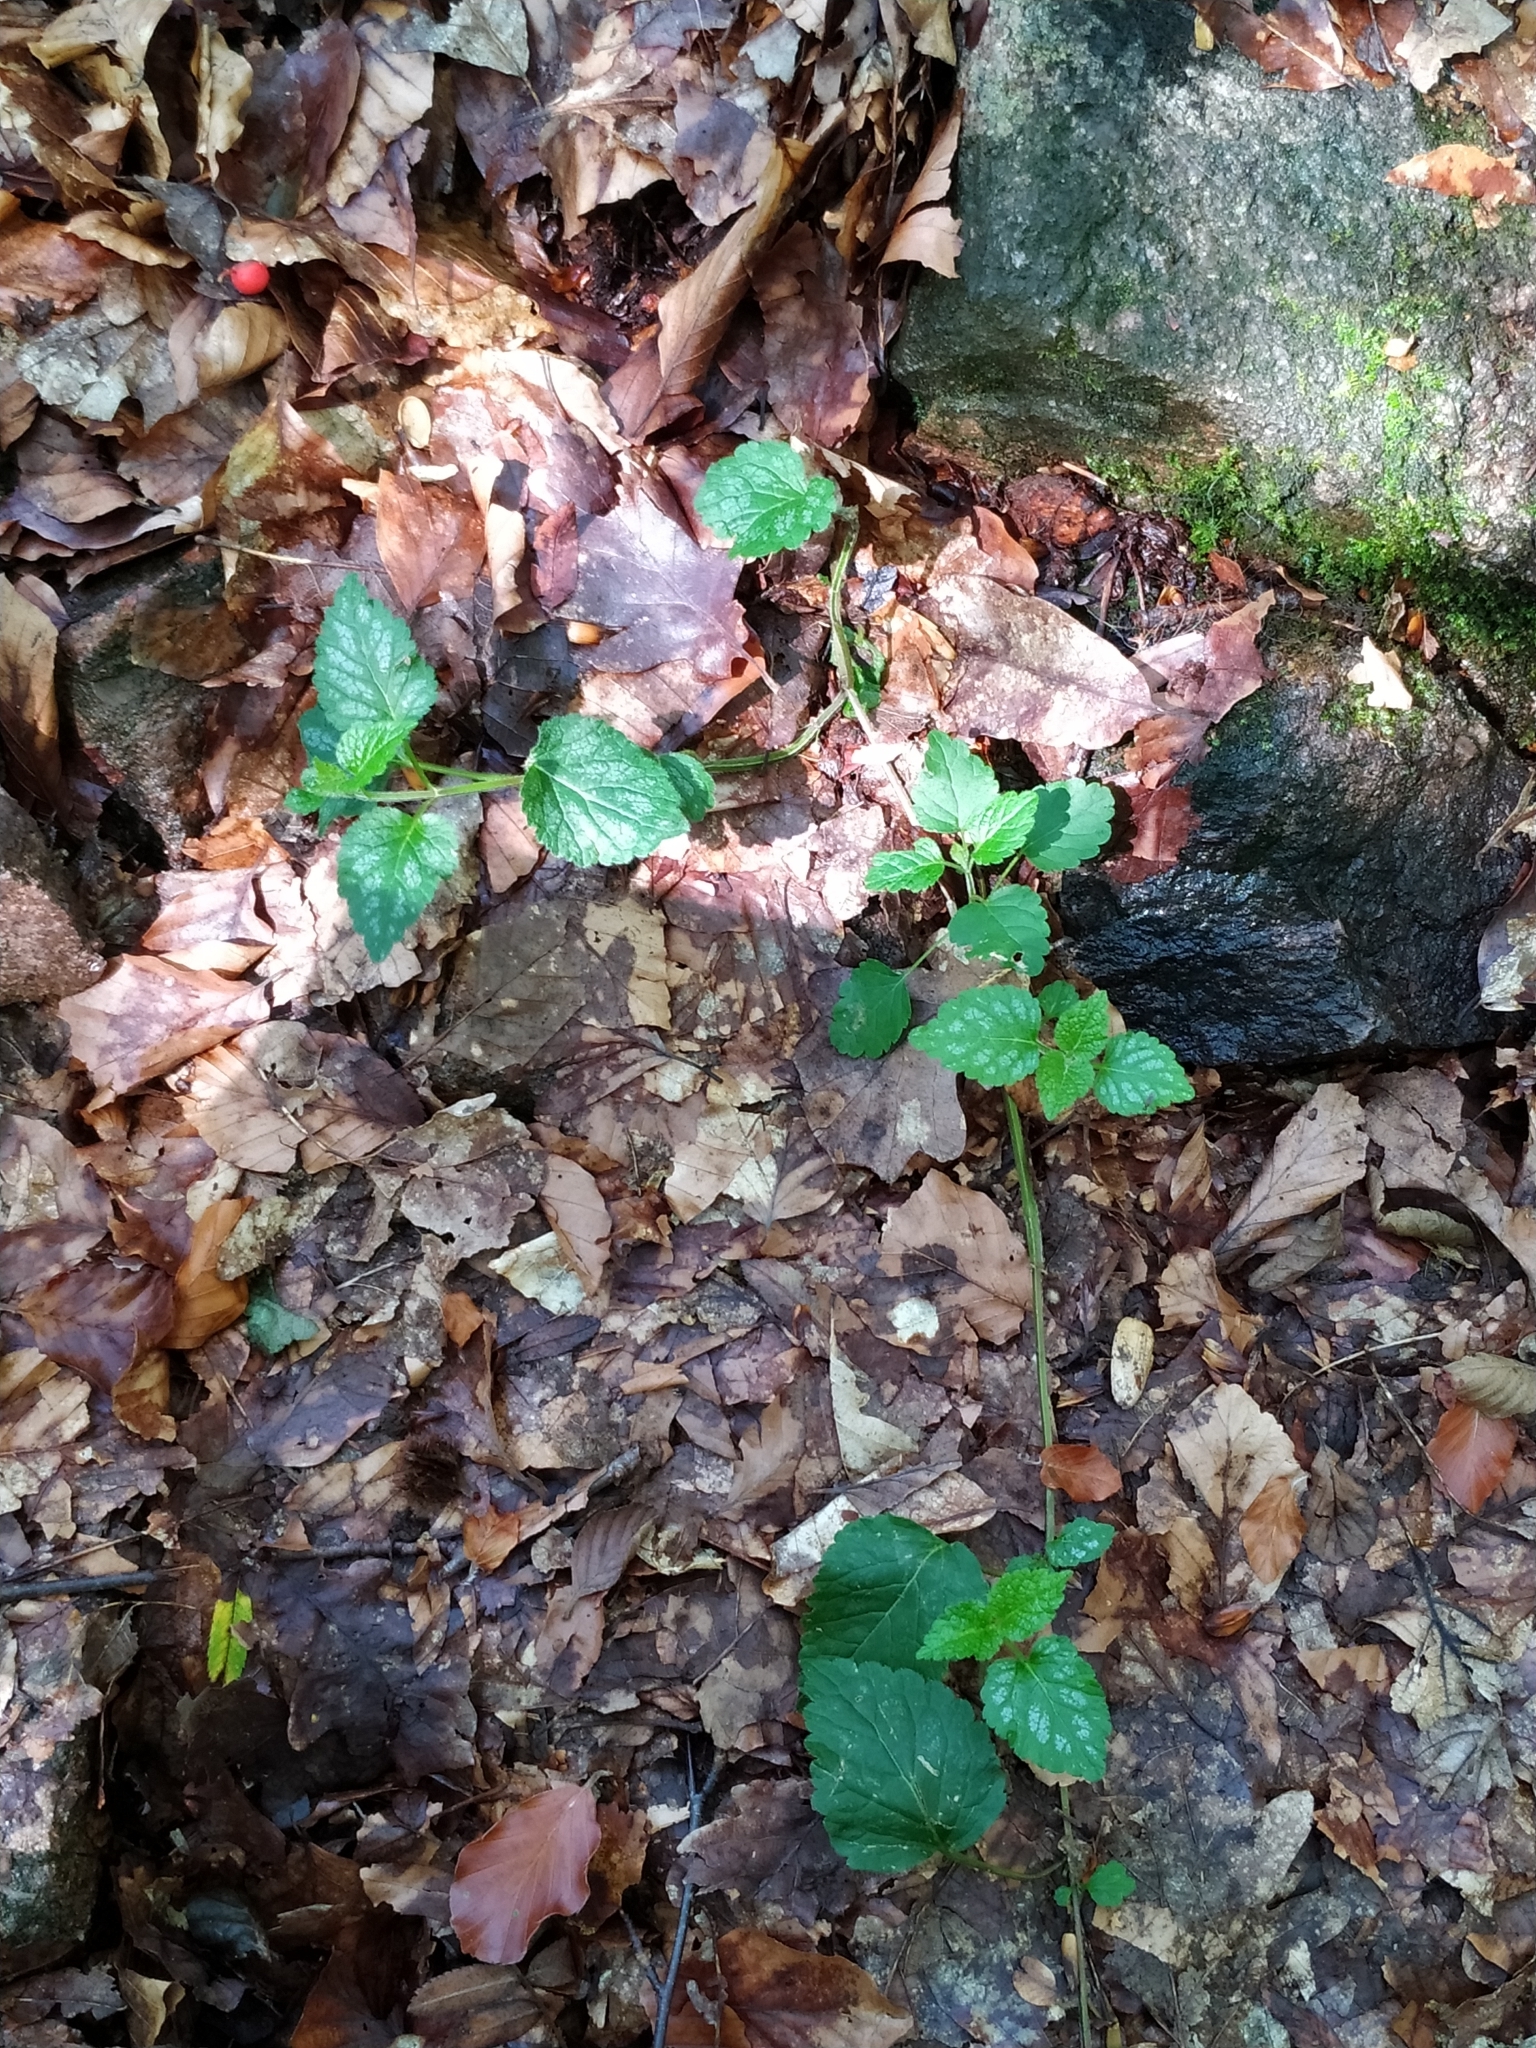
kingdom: Plantae
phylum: Tracheophyta
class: Magnoliopsida
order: Lamiales
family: Lamiaceae
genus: Lamium
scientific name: Lamium galeobdolon
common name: Yellow archangel
